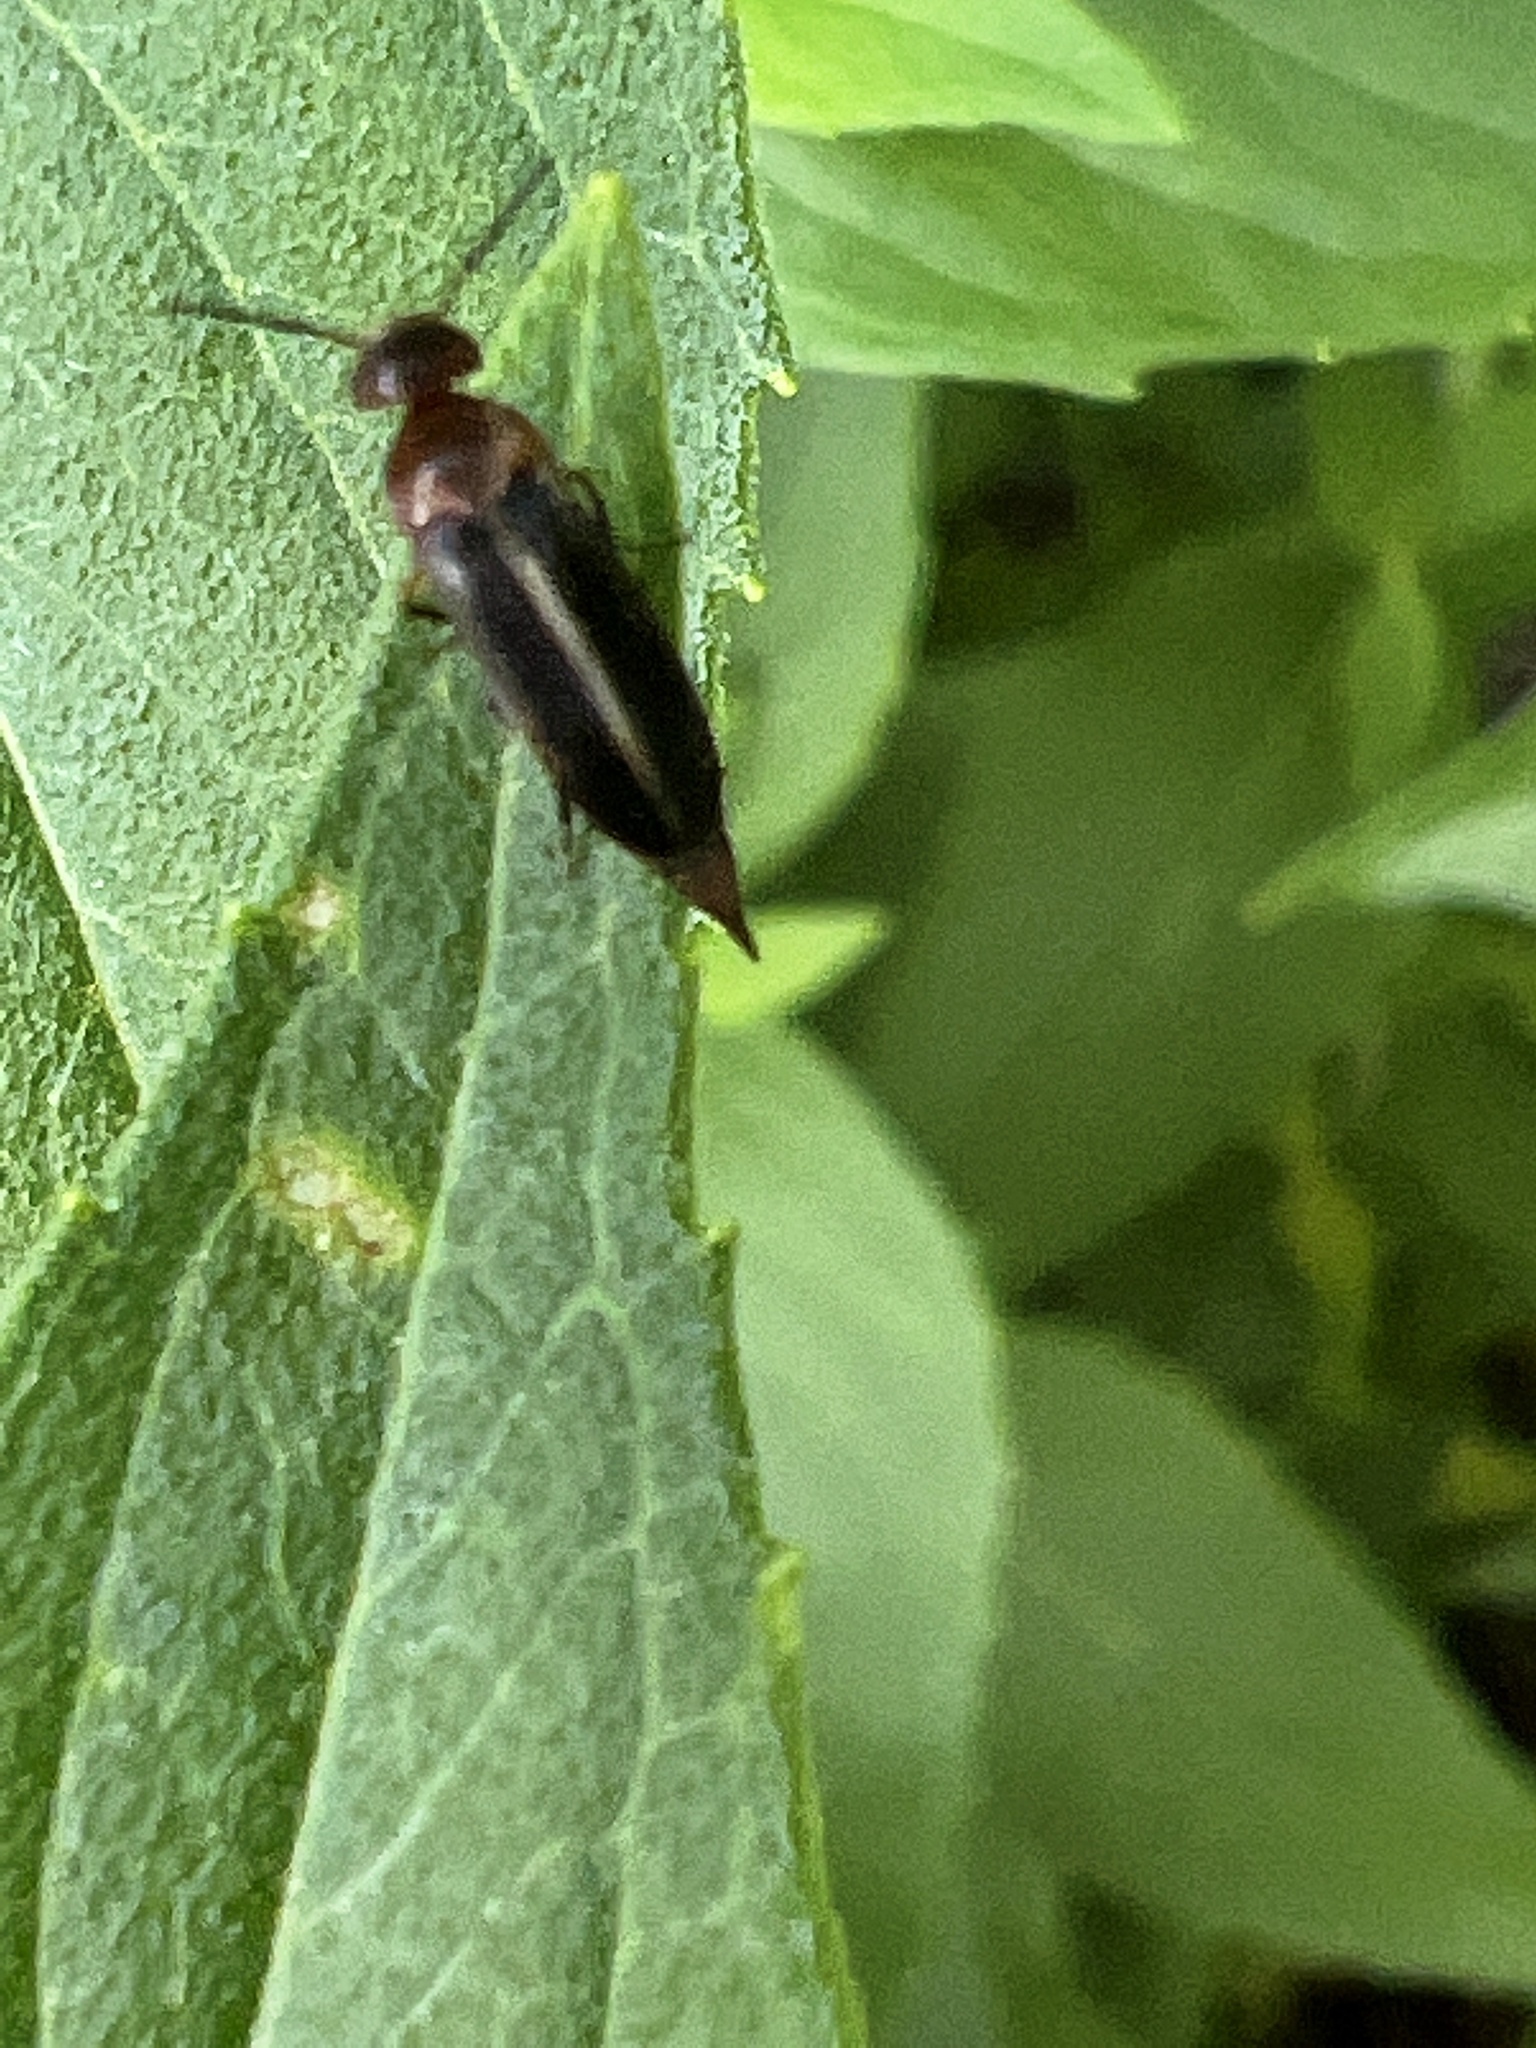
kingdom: Animalia
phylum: Arthropoda
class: Insecta
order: Coleoptera
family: Mordellidae
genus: Mordellistena
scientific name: Mordellistena fuscipennis
